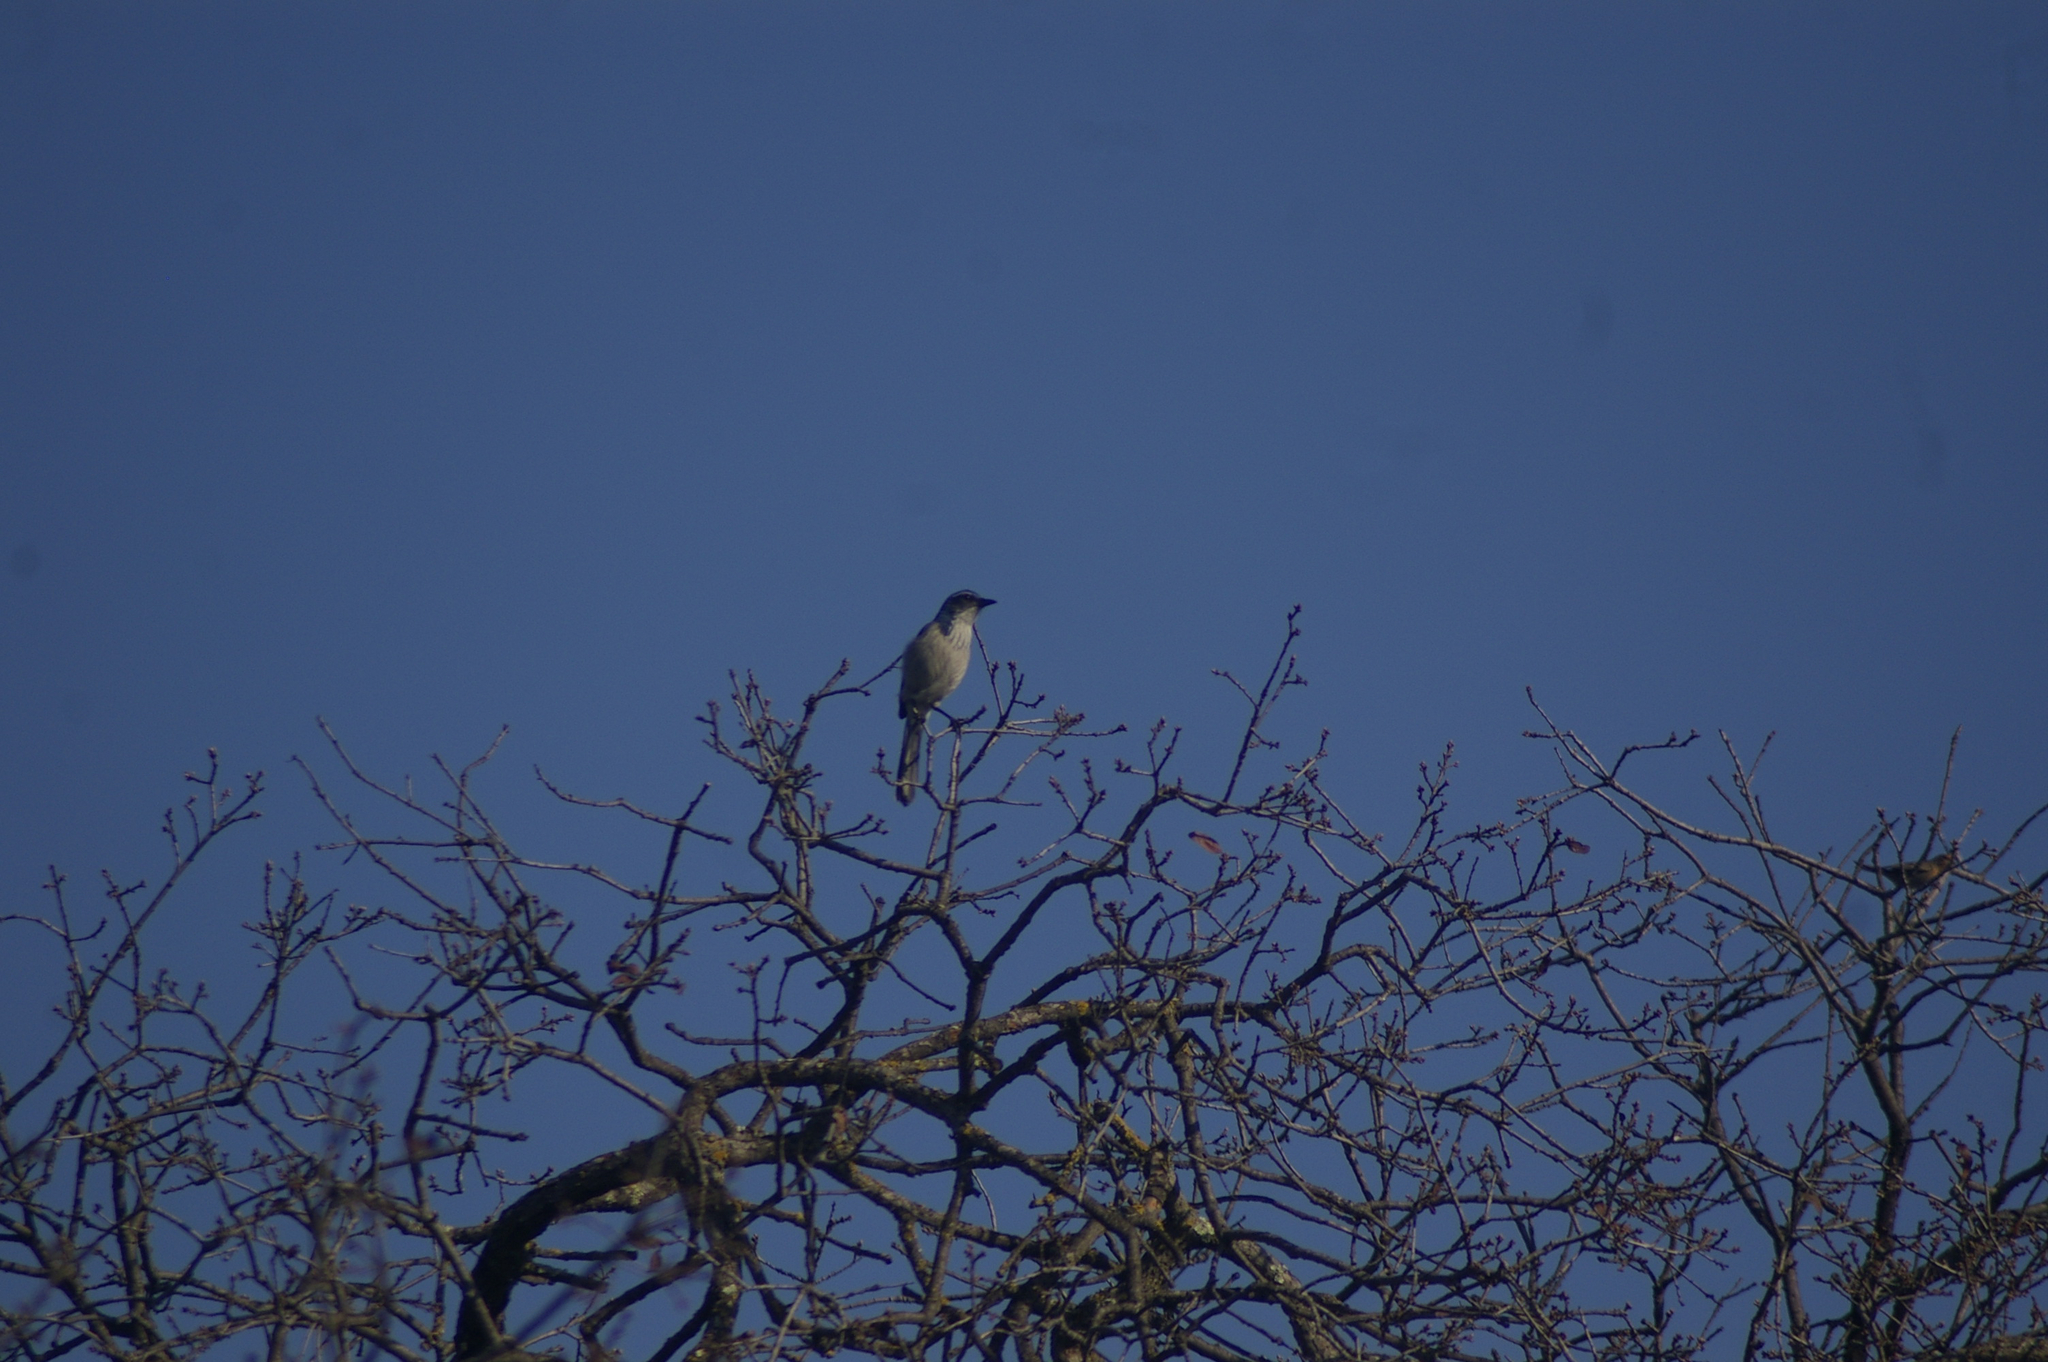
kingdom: Animalia
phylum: Chordata
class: Aves
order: Passeriformes
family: Corvidae
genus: Aphelocoma
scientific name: Aphelocoma californica
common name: California scrub-jay
